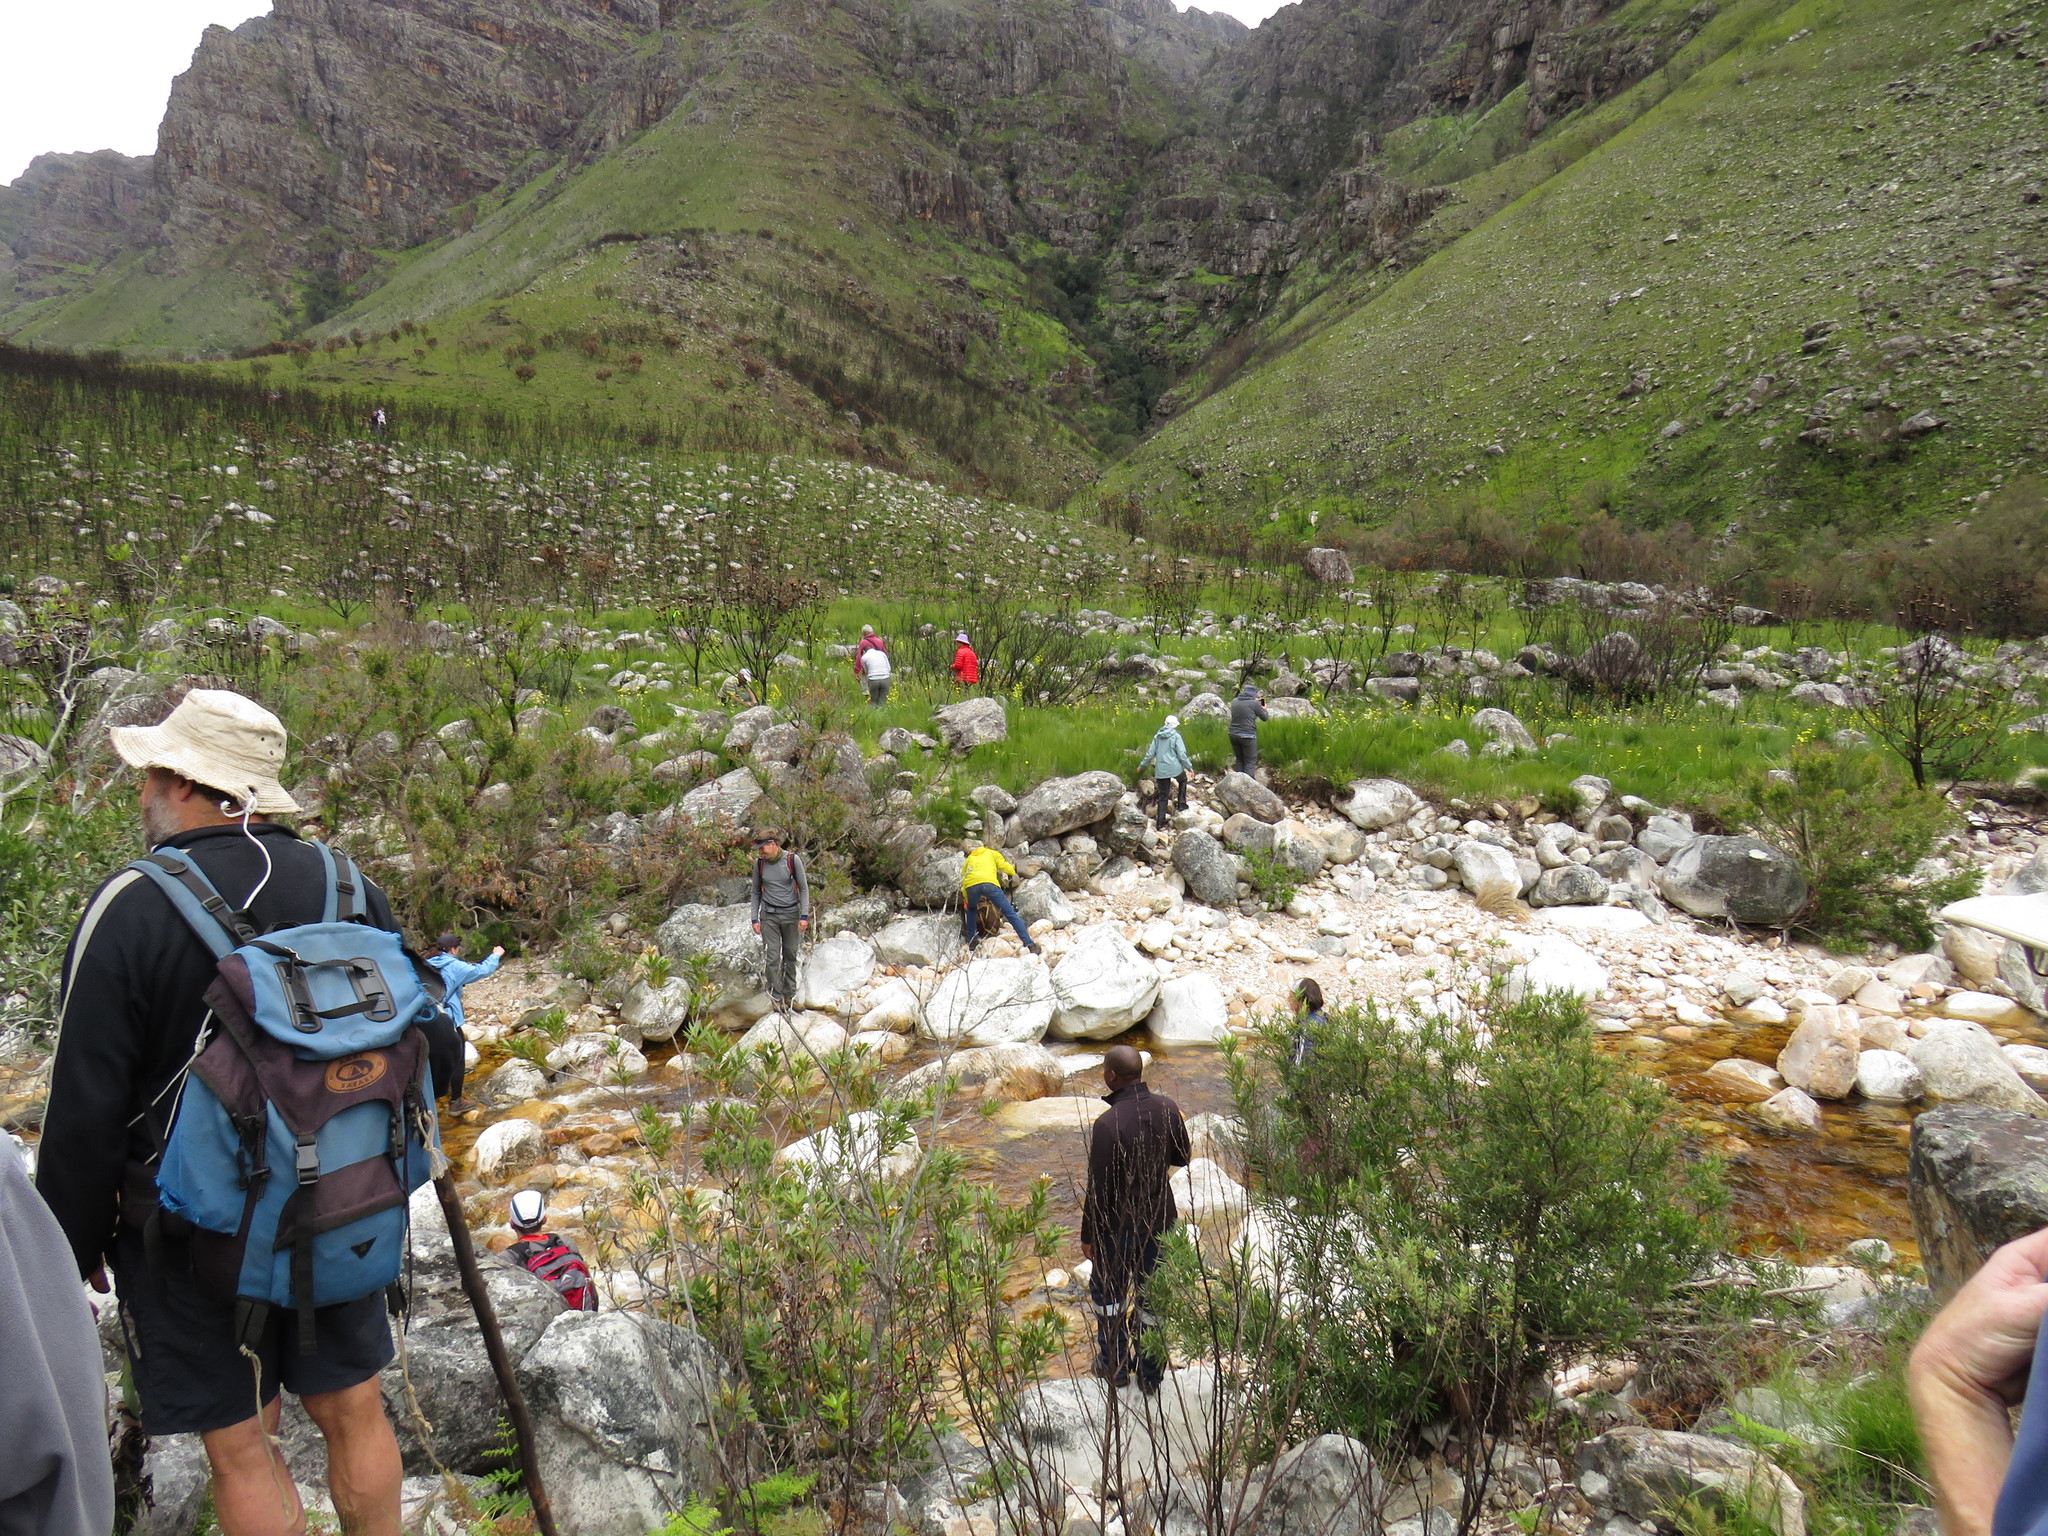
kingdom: Plantae
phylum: Tracheophyta
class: Liliopsida
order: Asparagales
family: Iridaceae
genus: Moraea
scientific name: Moraea ochroleuca
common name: Red tulp
